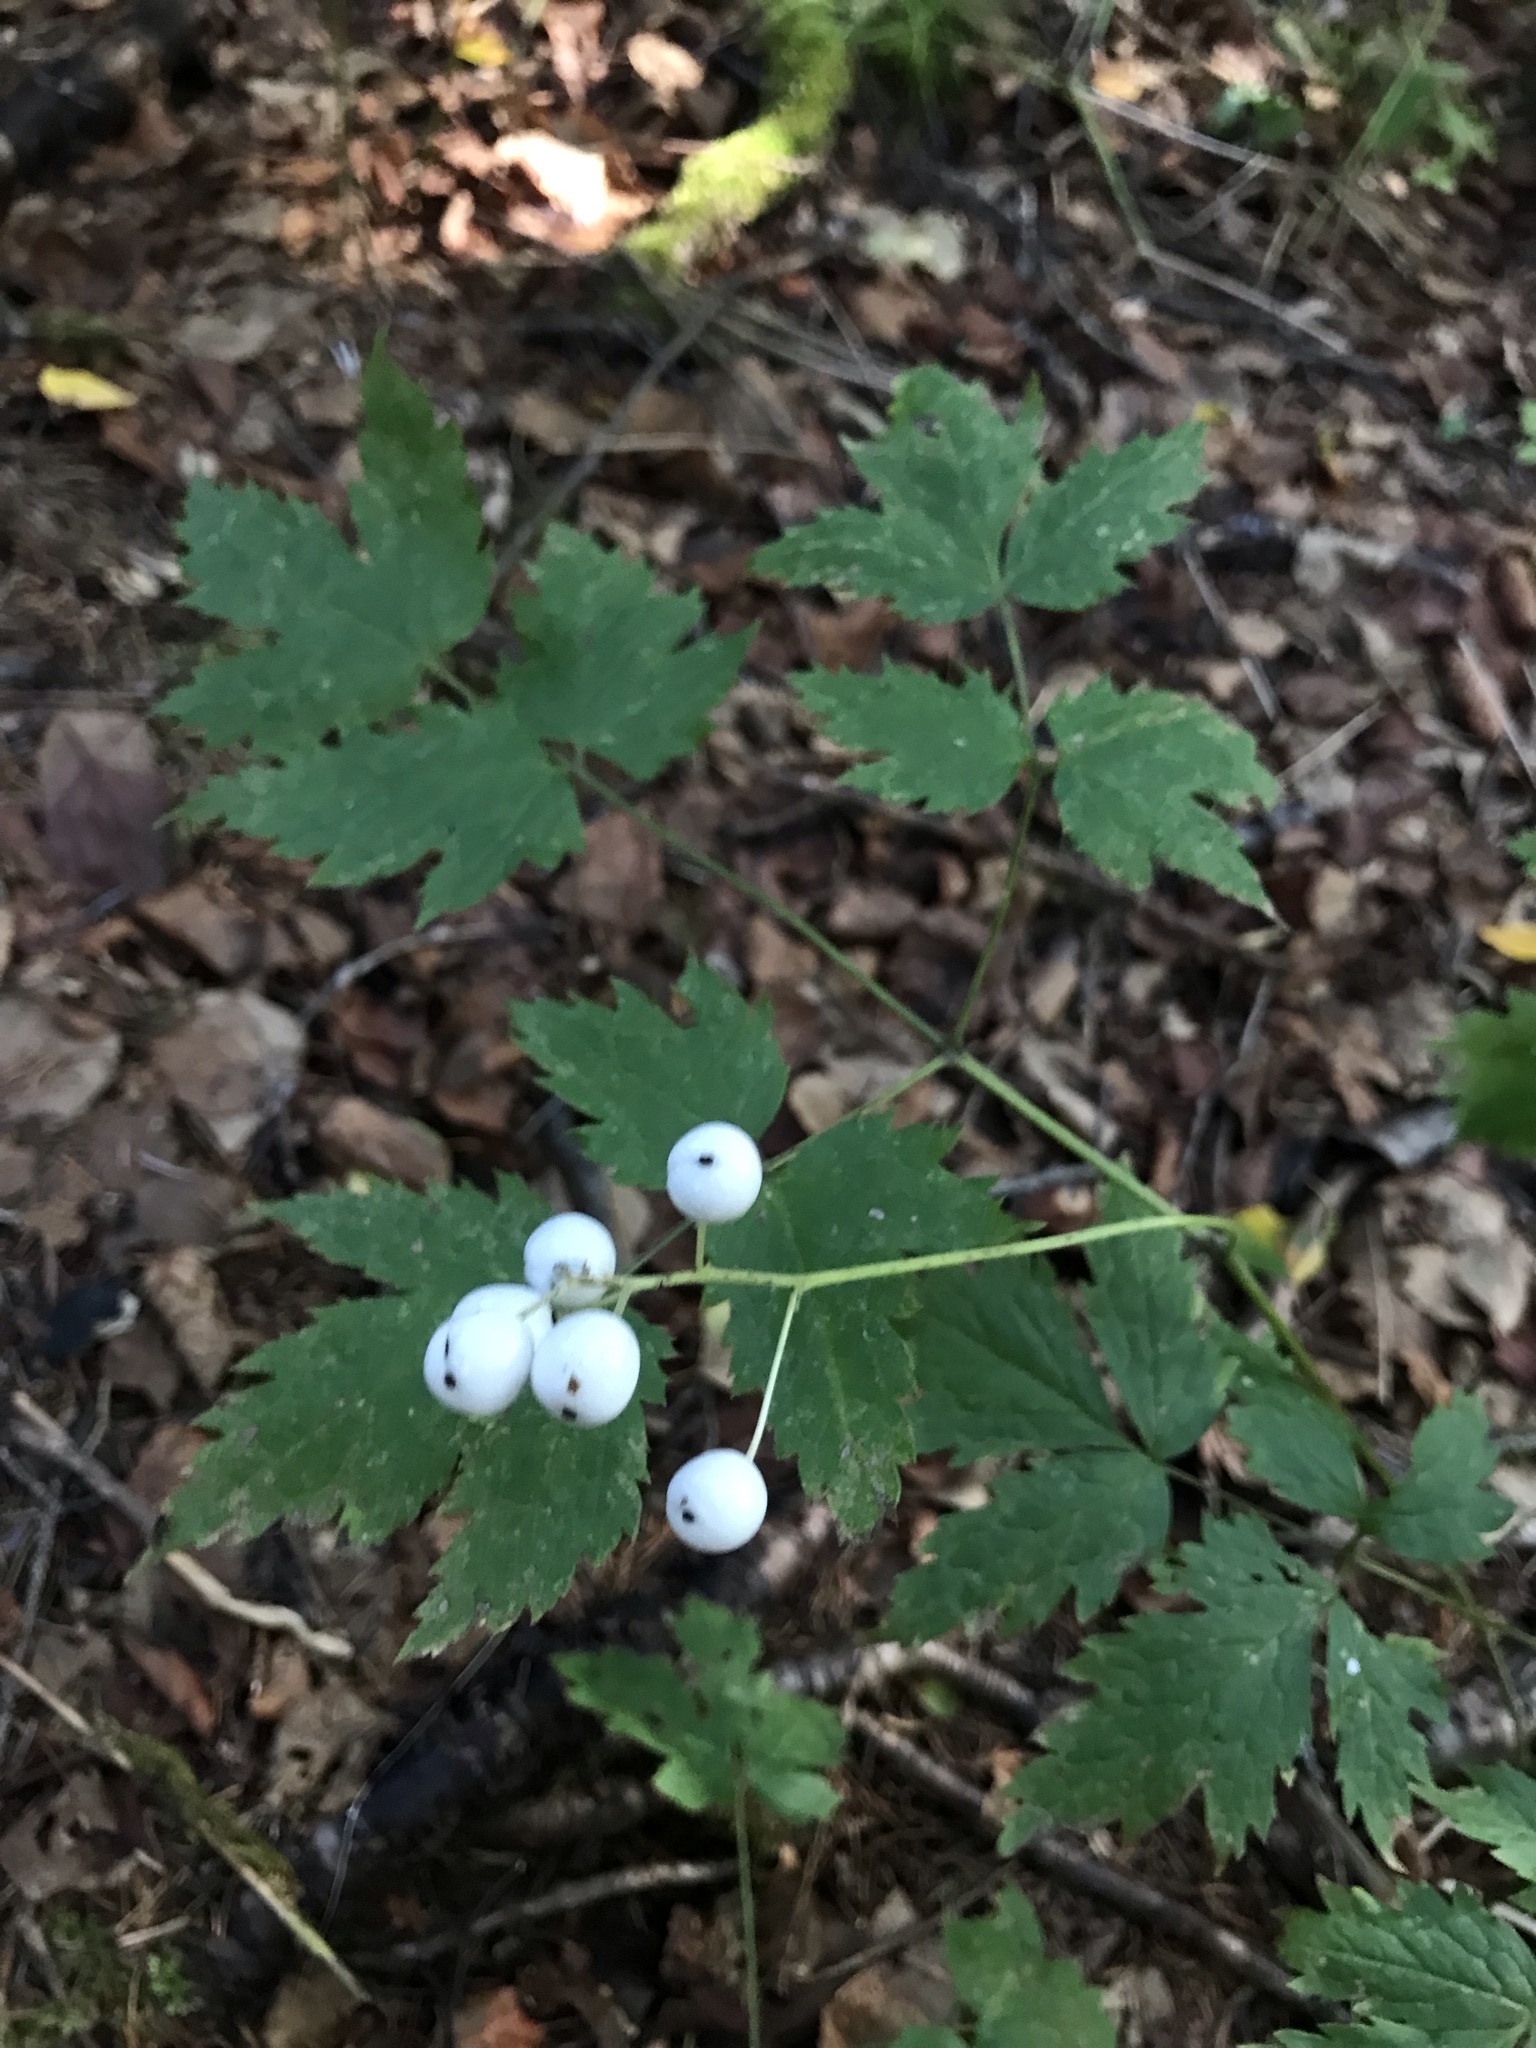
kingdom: Plantae
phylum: Tracheophyta
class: Magnoliopsida
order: Ranunculales
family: Ranunculaceae
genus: Actaea
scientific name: Actaea rubra
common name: Red baneberry
